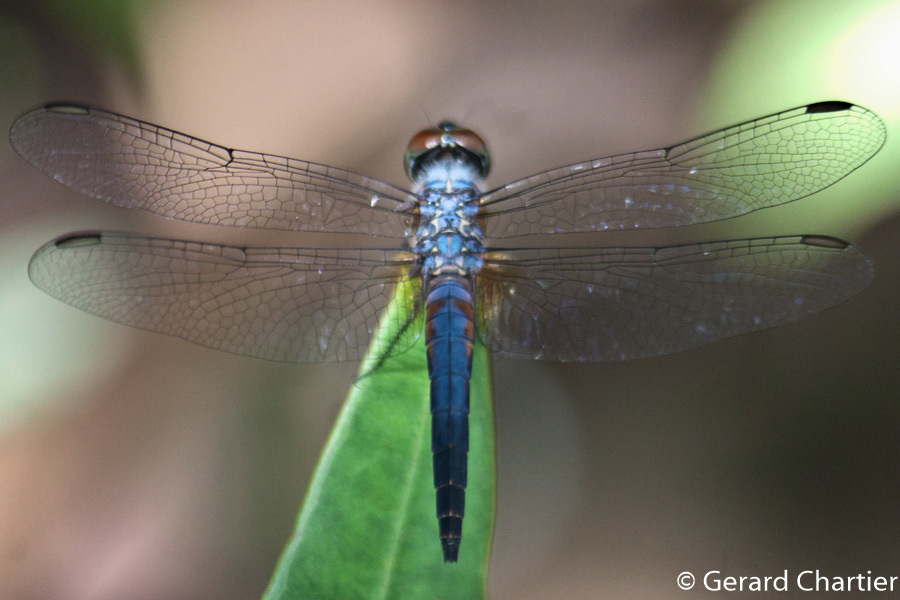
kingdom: Animalia
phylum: Arthropoda
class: Insecta
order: Odonata
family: Libellulidae
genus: Brachydiplax
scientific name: Brachydiplax chalybea
